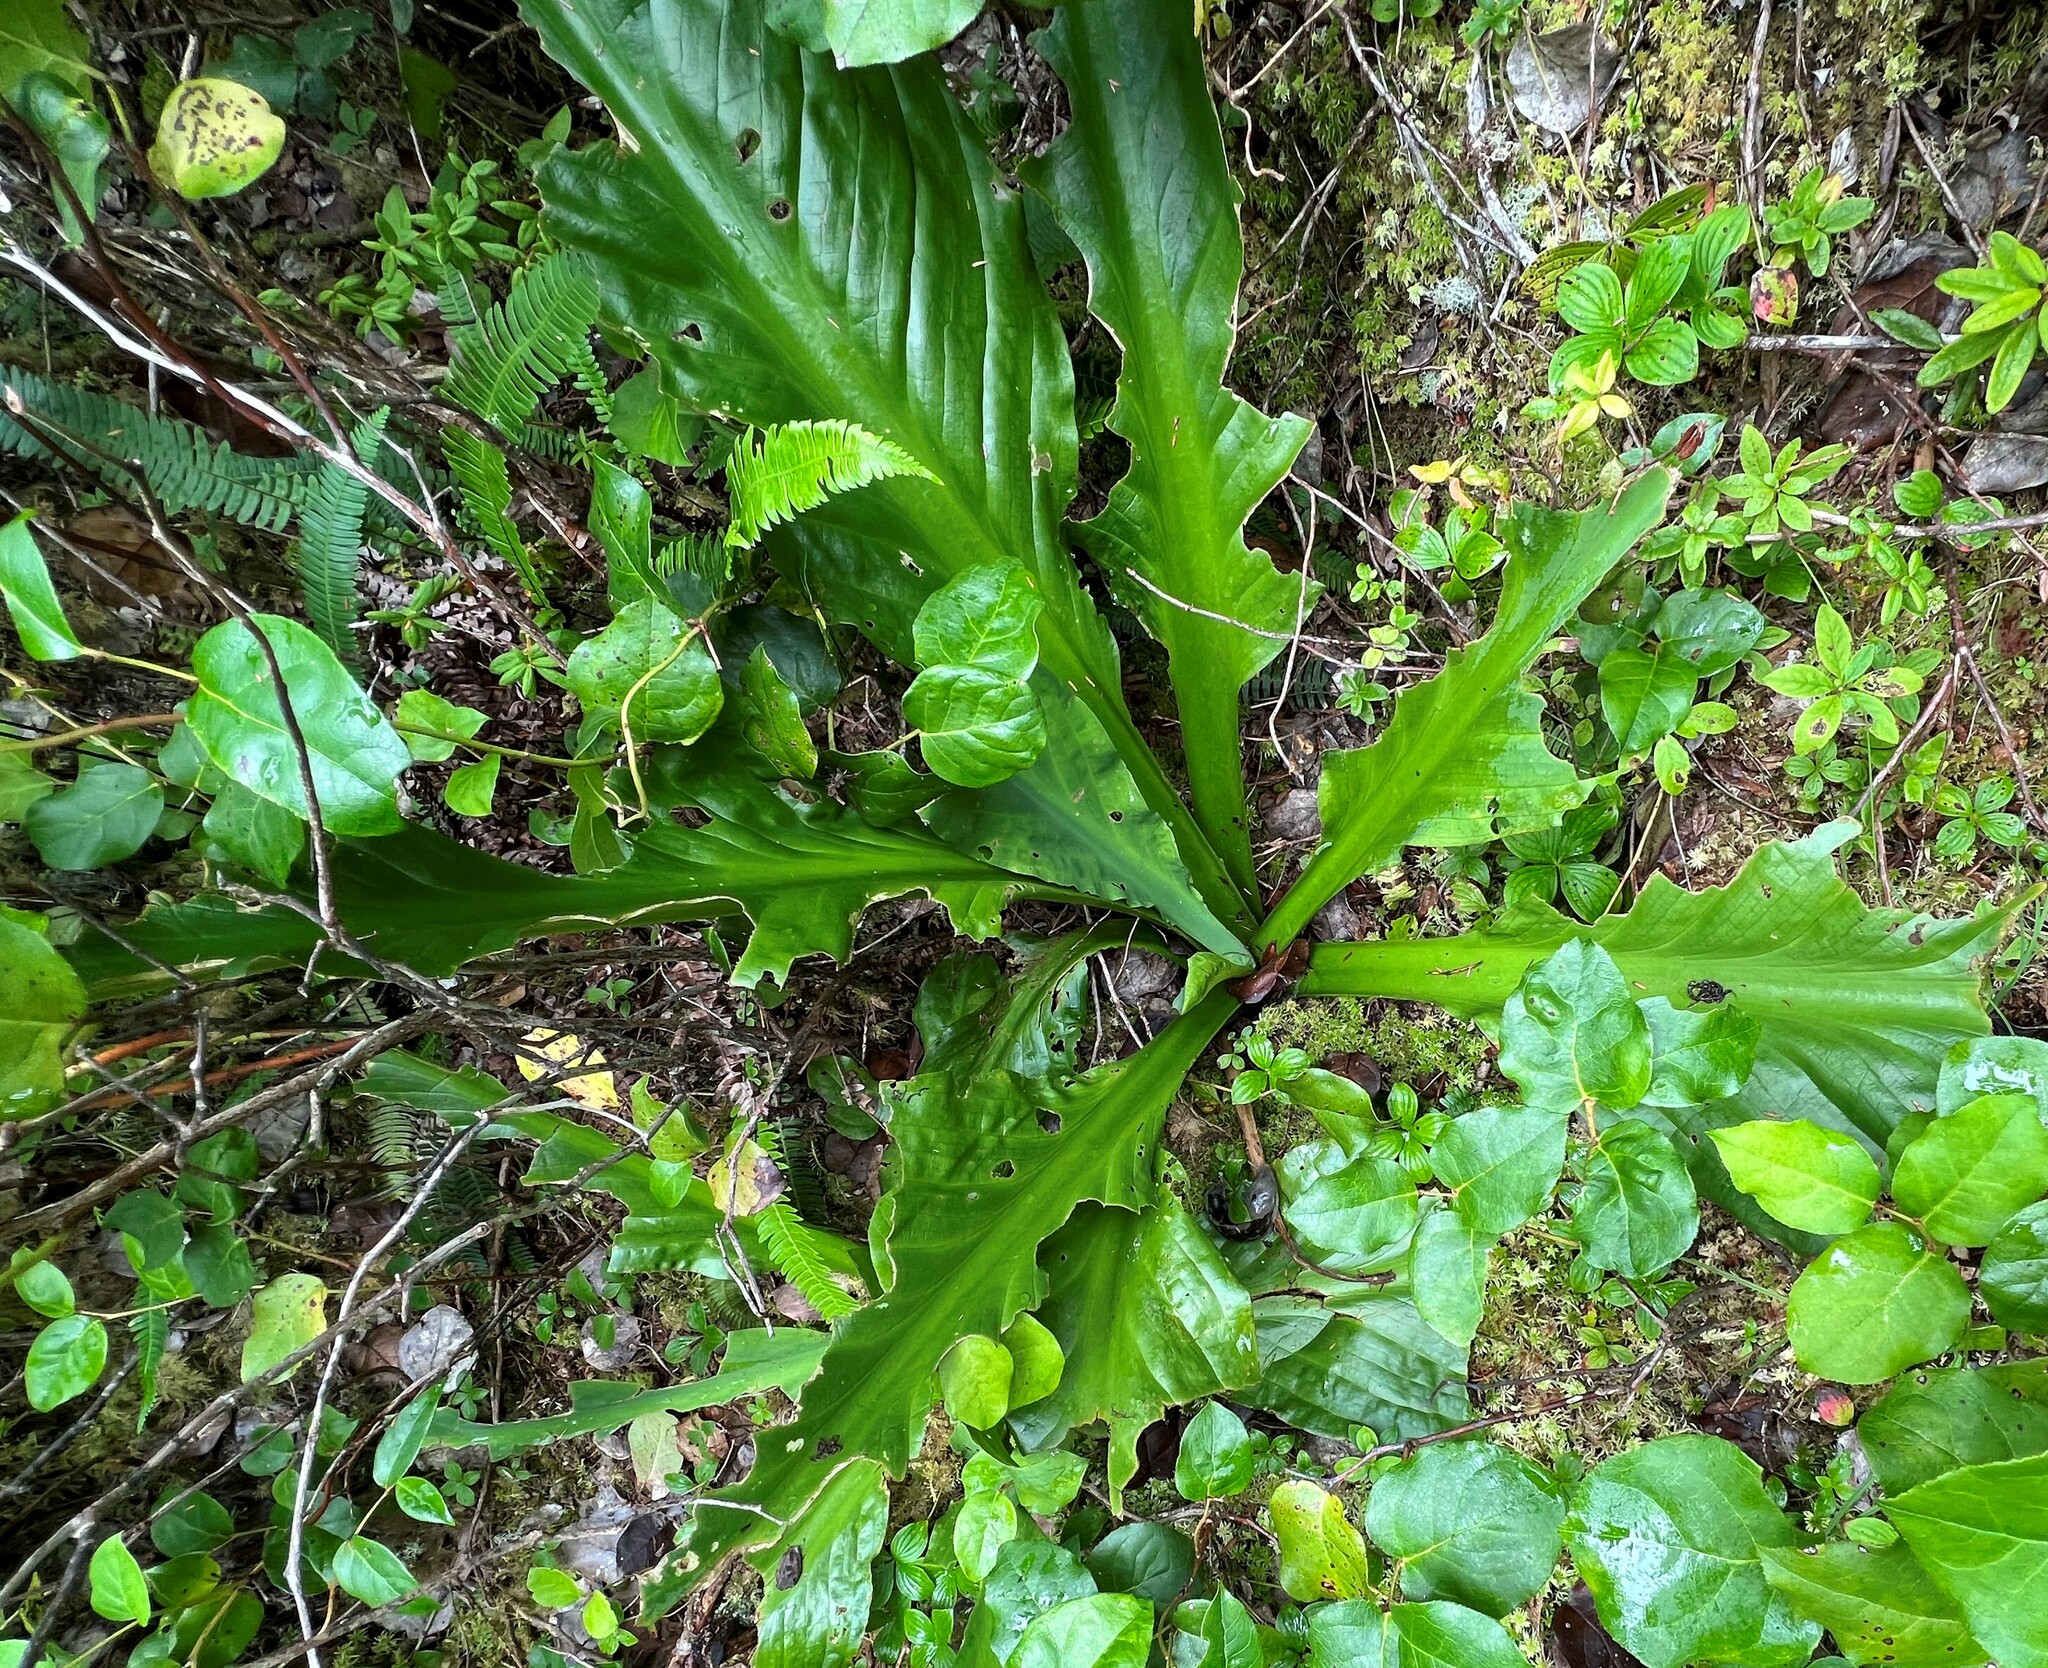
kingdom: Plantae
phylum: Tracheophyta
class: Liliopsida
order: Alismatales
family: Araceae
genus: Lysichiton
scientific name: Lysichiton americanus
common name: American skunk cabbage
